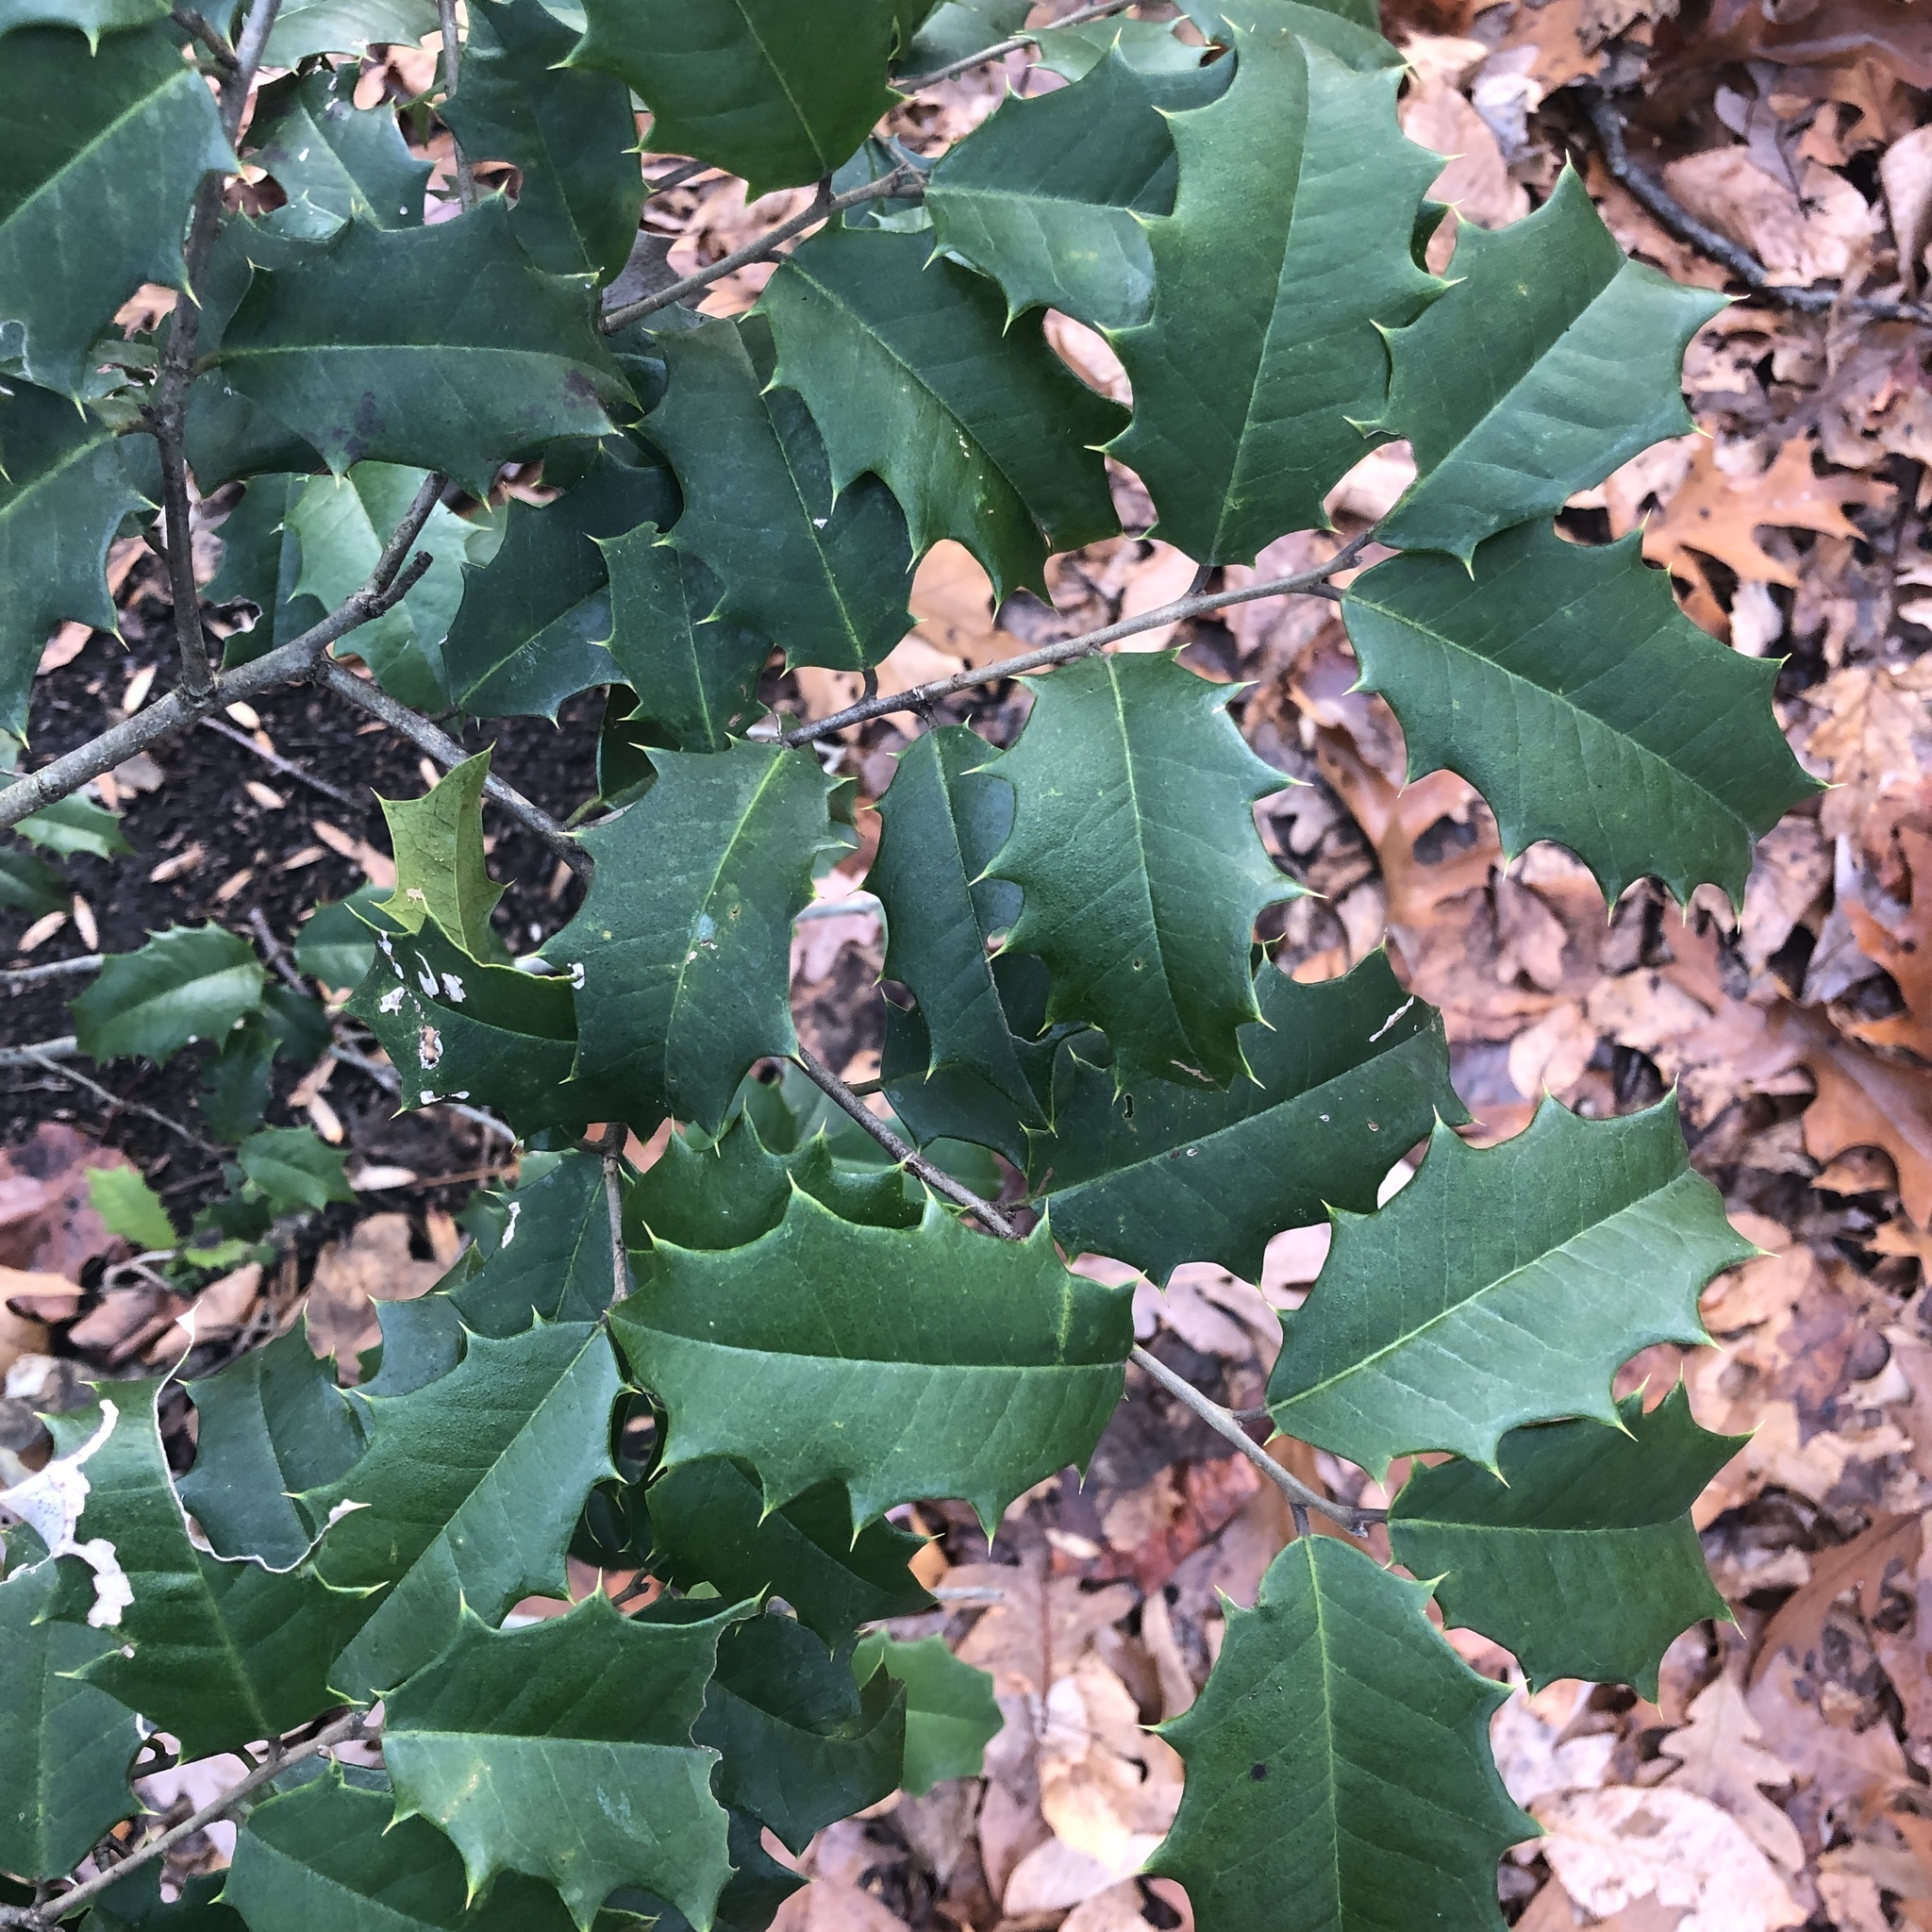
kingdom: Plantae
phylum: Tracheophyta
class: Magnoliopsida
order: Aquifoliales
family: Aquifoliaceae
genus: Ilex
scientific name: Ilex opaca
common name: American holly
